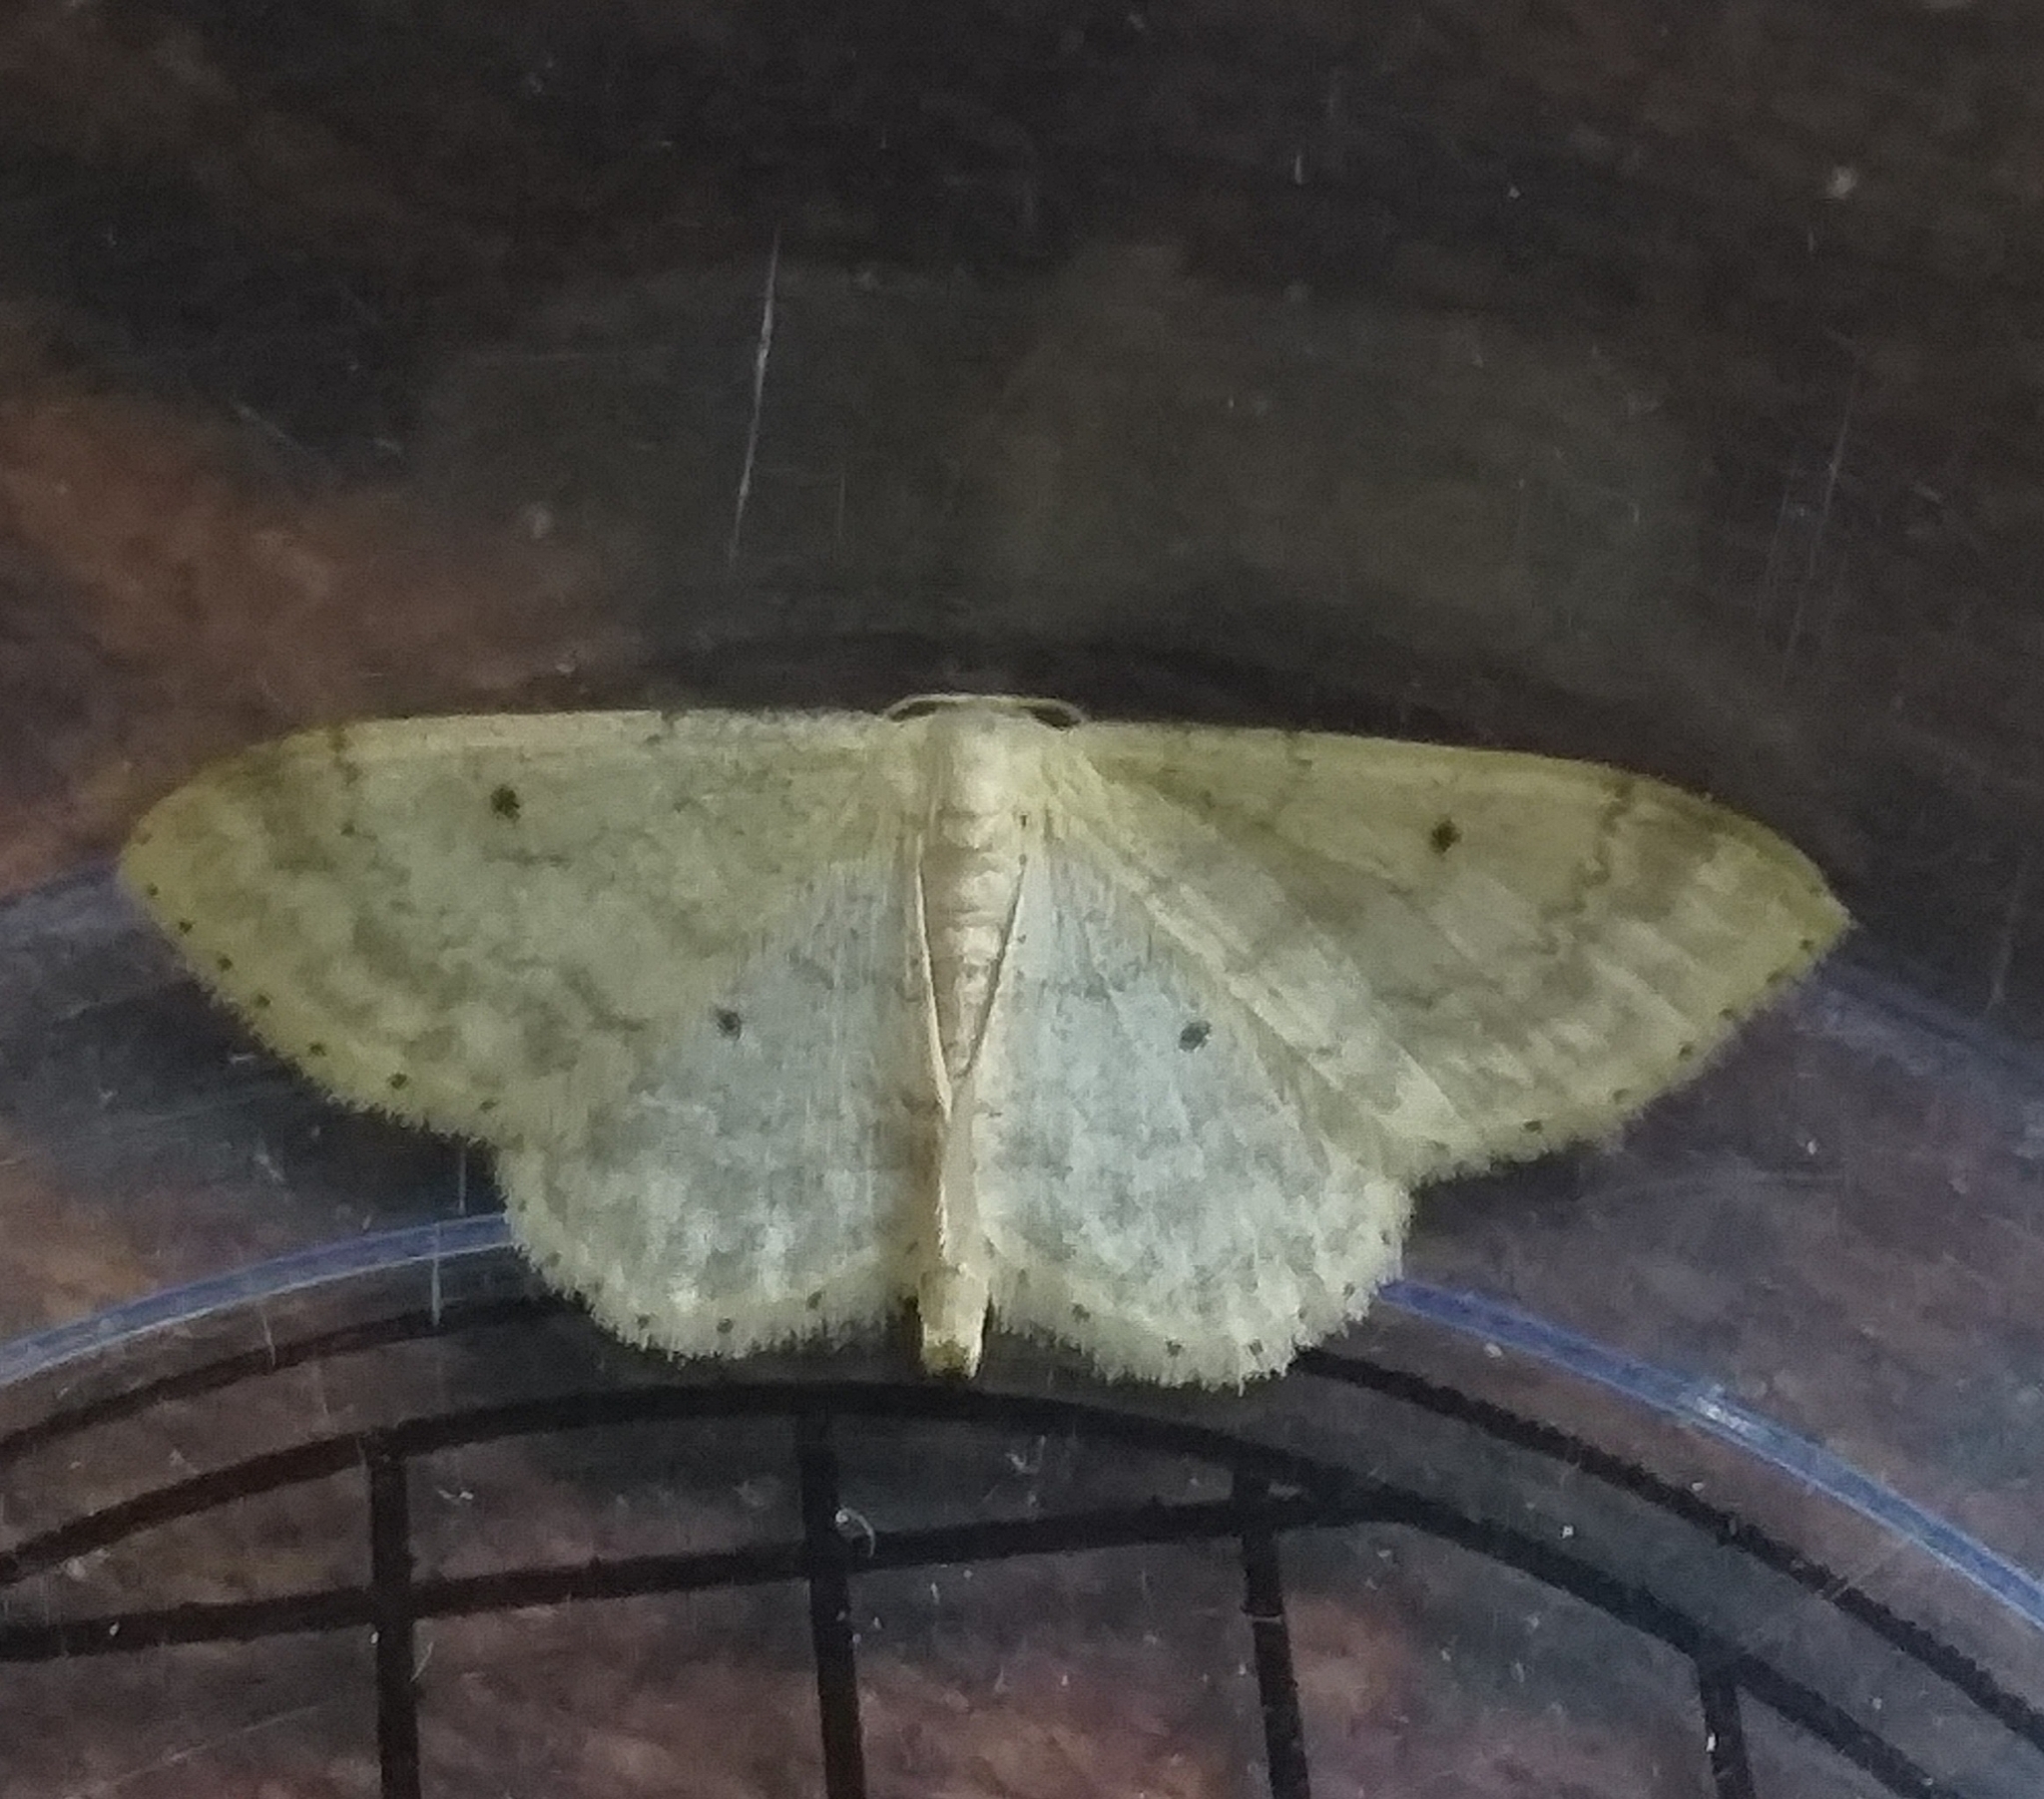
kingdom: Animalia
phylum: Arthropoda
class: Insecta
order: Lepidoptera
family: Geometridae
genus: Idaea
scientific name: Idaea biselata
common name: Small fan-footed wave
